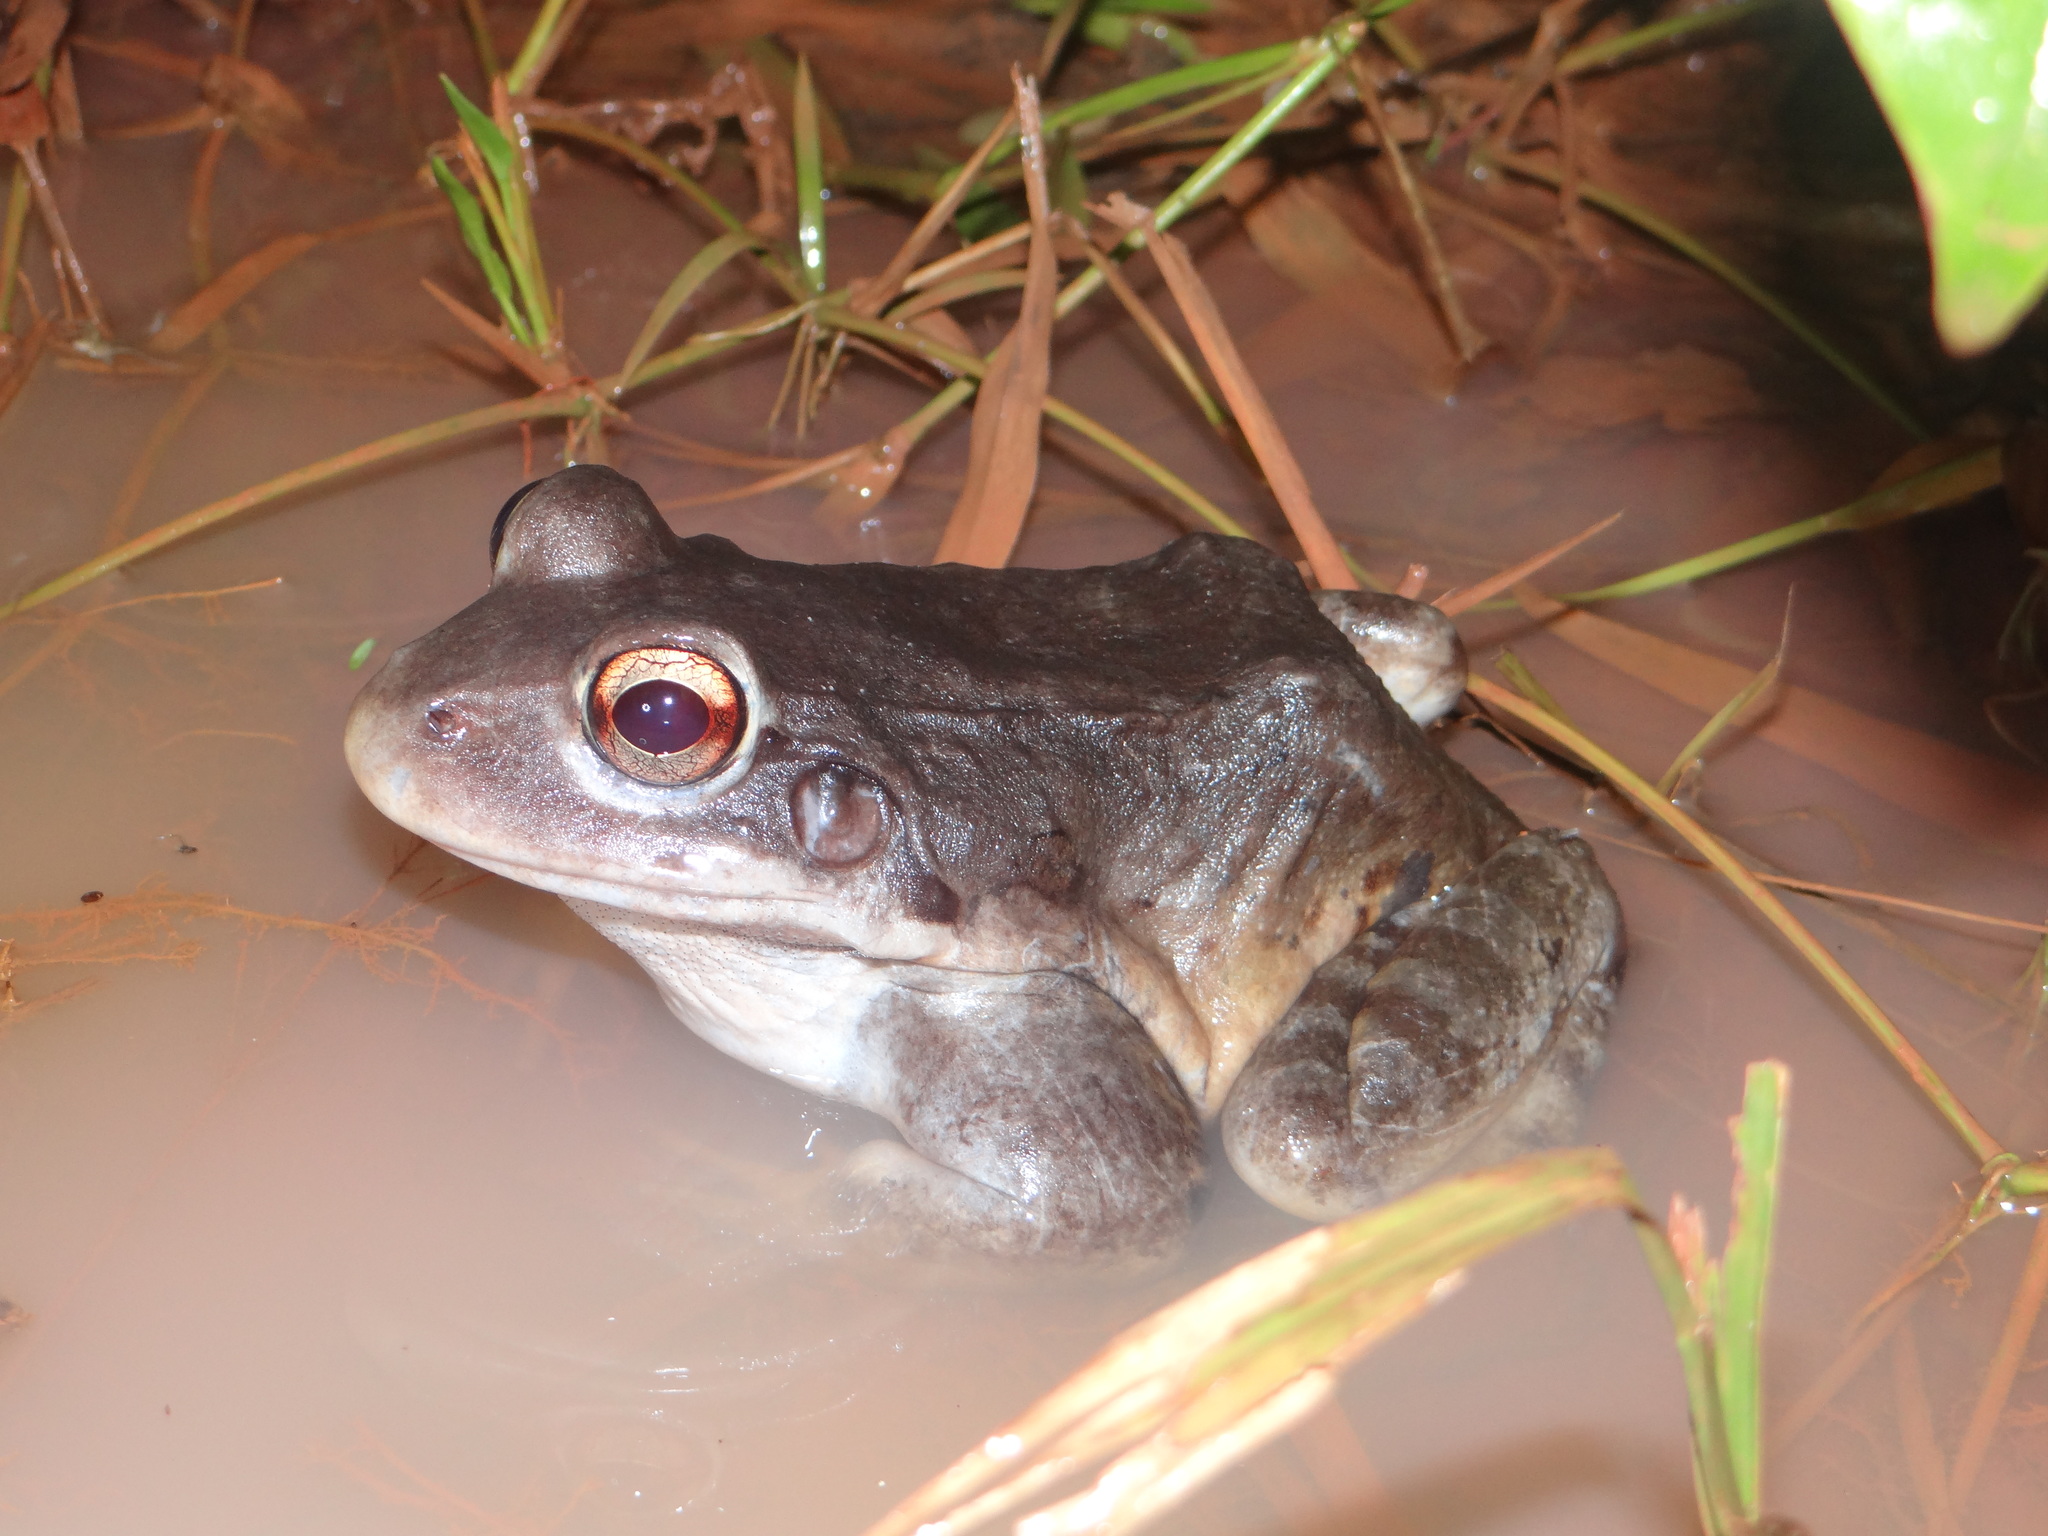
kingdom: Animalia
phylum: Chordata
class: Amphibia
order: Anura
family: Leptodactylidae
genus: Leptodactylus
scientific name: Leptodactylus knudseni
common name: Knudsen's frog
